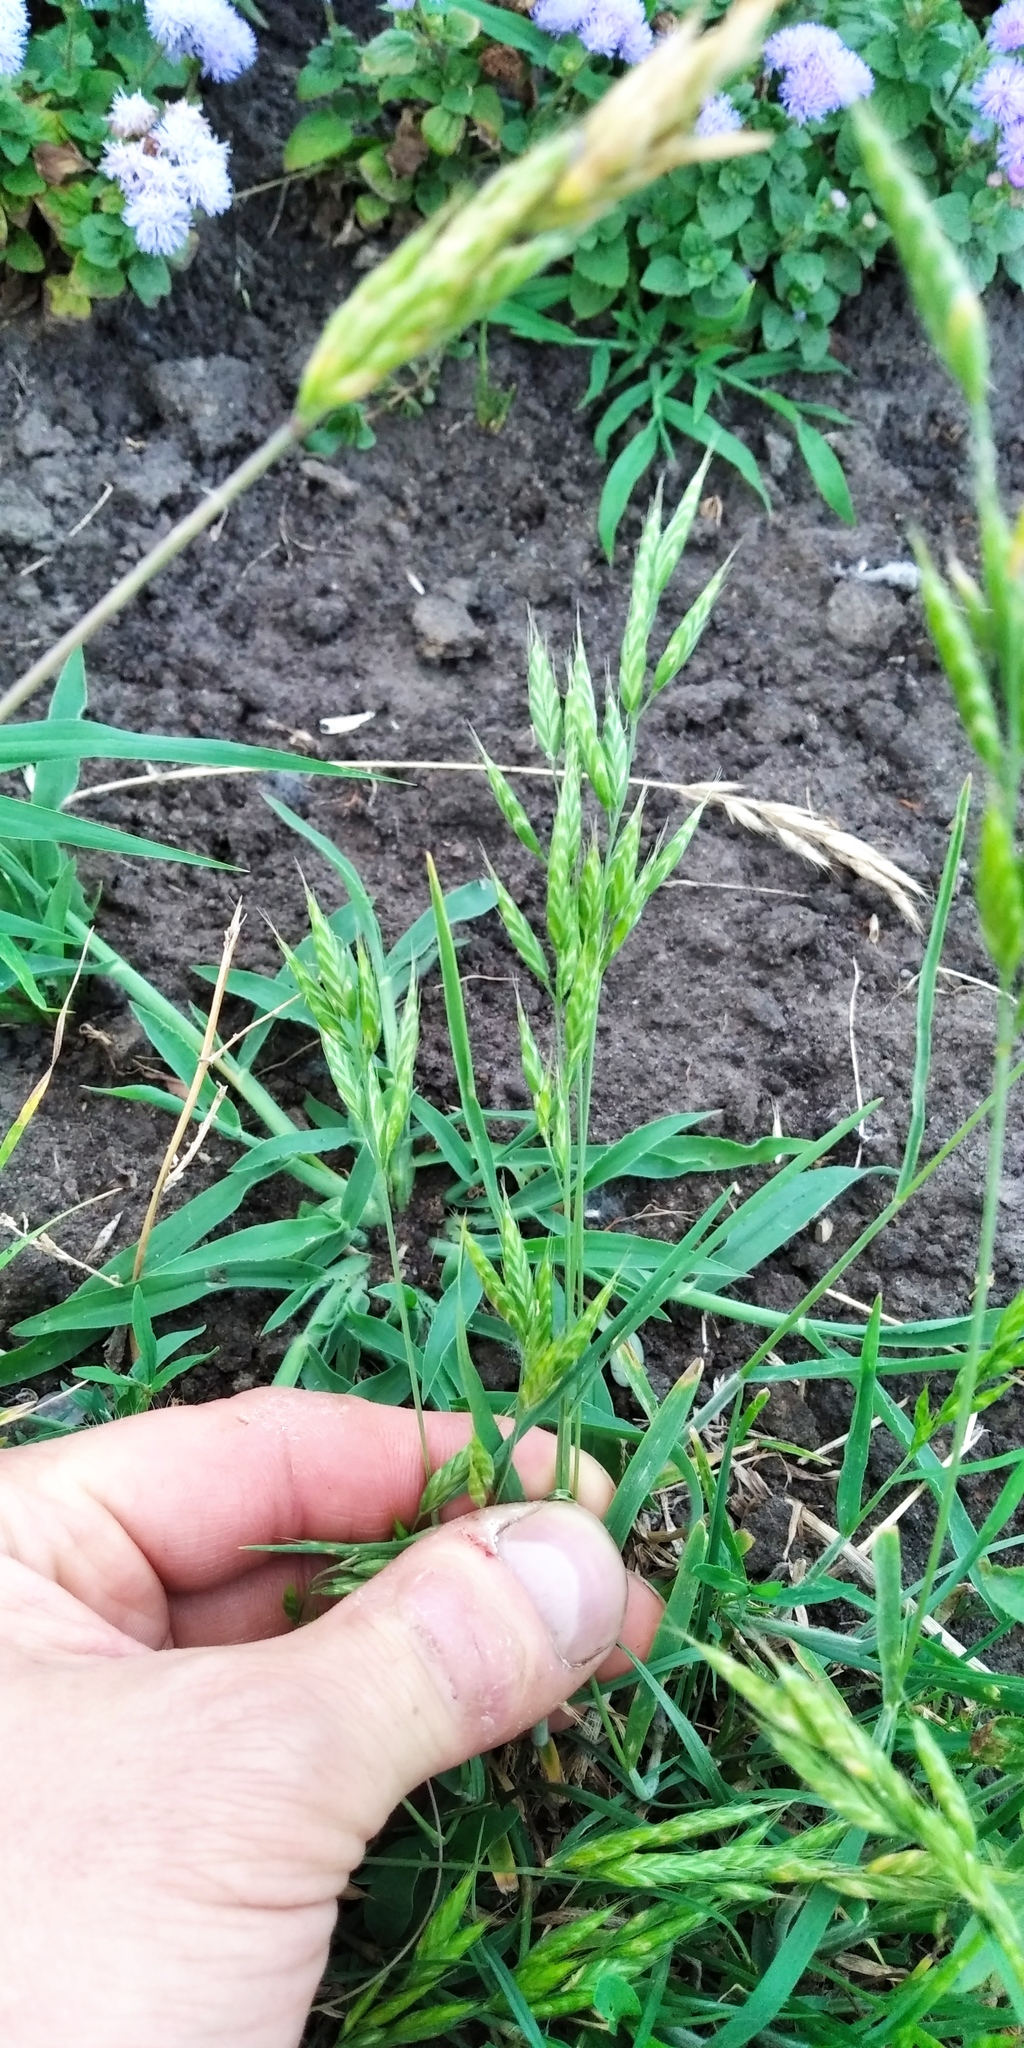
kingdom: Plantae
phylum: Tracheophyta
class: Liliopsida
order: Poales
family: Poaceae
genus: Bromus
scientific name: Bromus hordeaceus
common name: Soft brome
